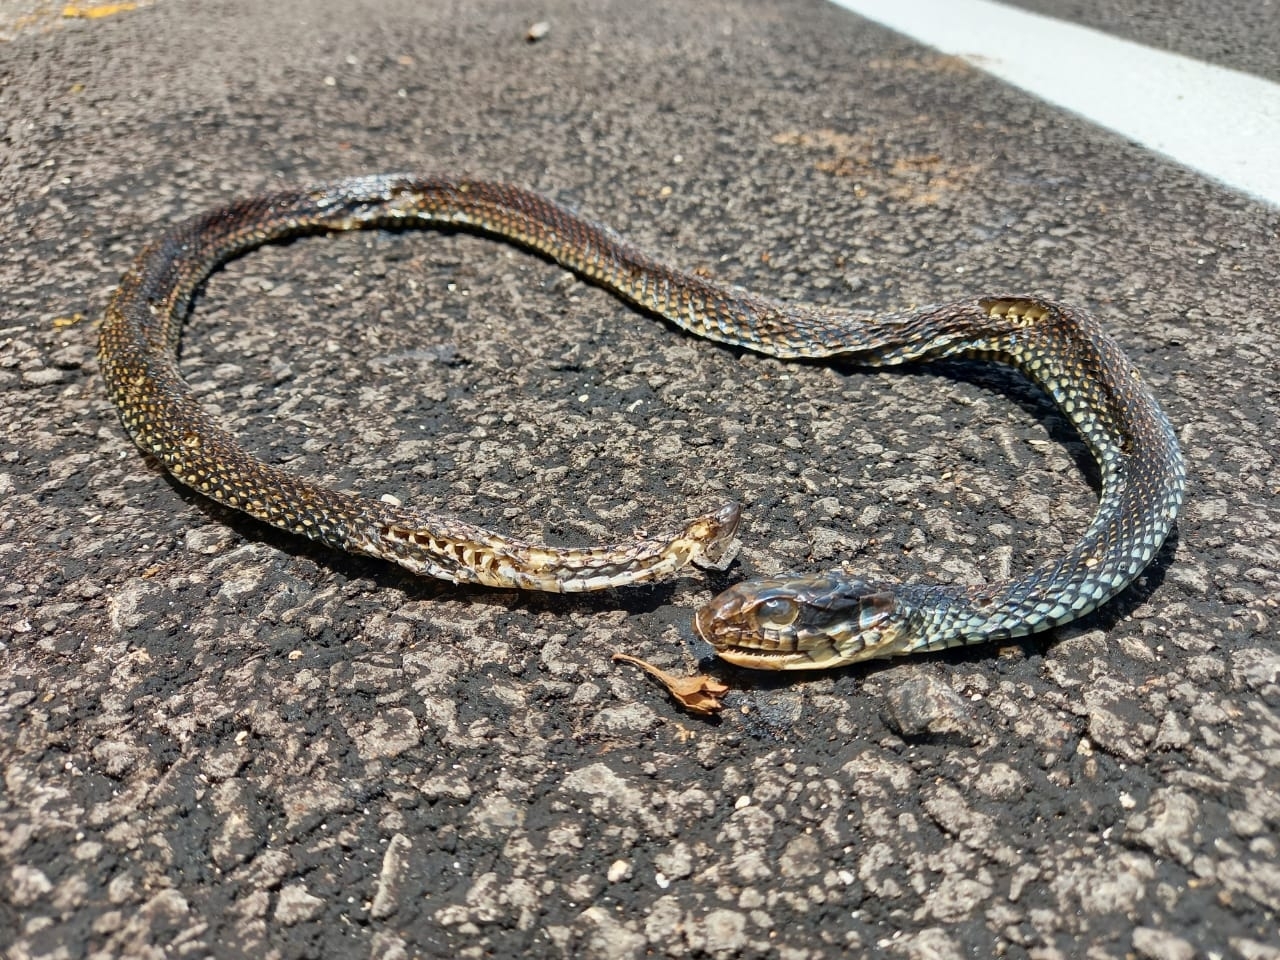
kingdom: Animalia
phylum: Chordata
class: Squamata
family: Colubridae
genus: Drymobius
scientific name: Drymobius margaritiferus
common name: Central american speckled racer
